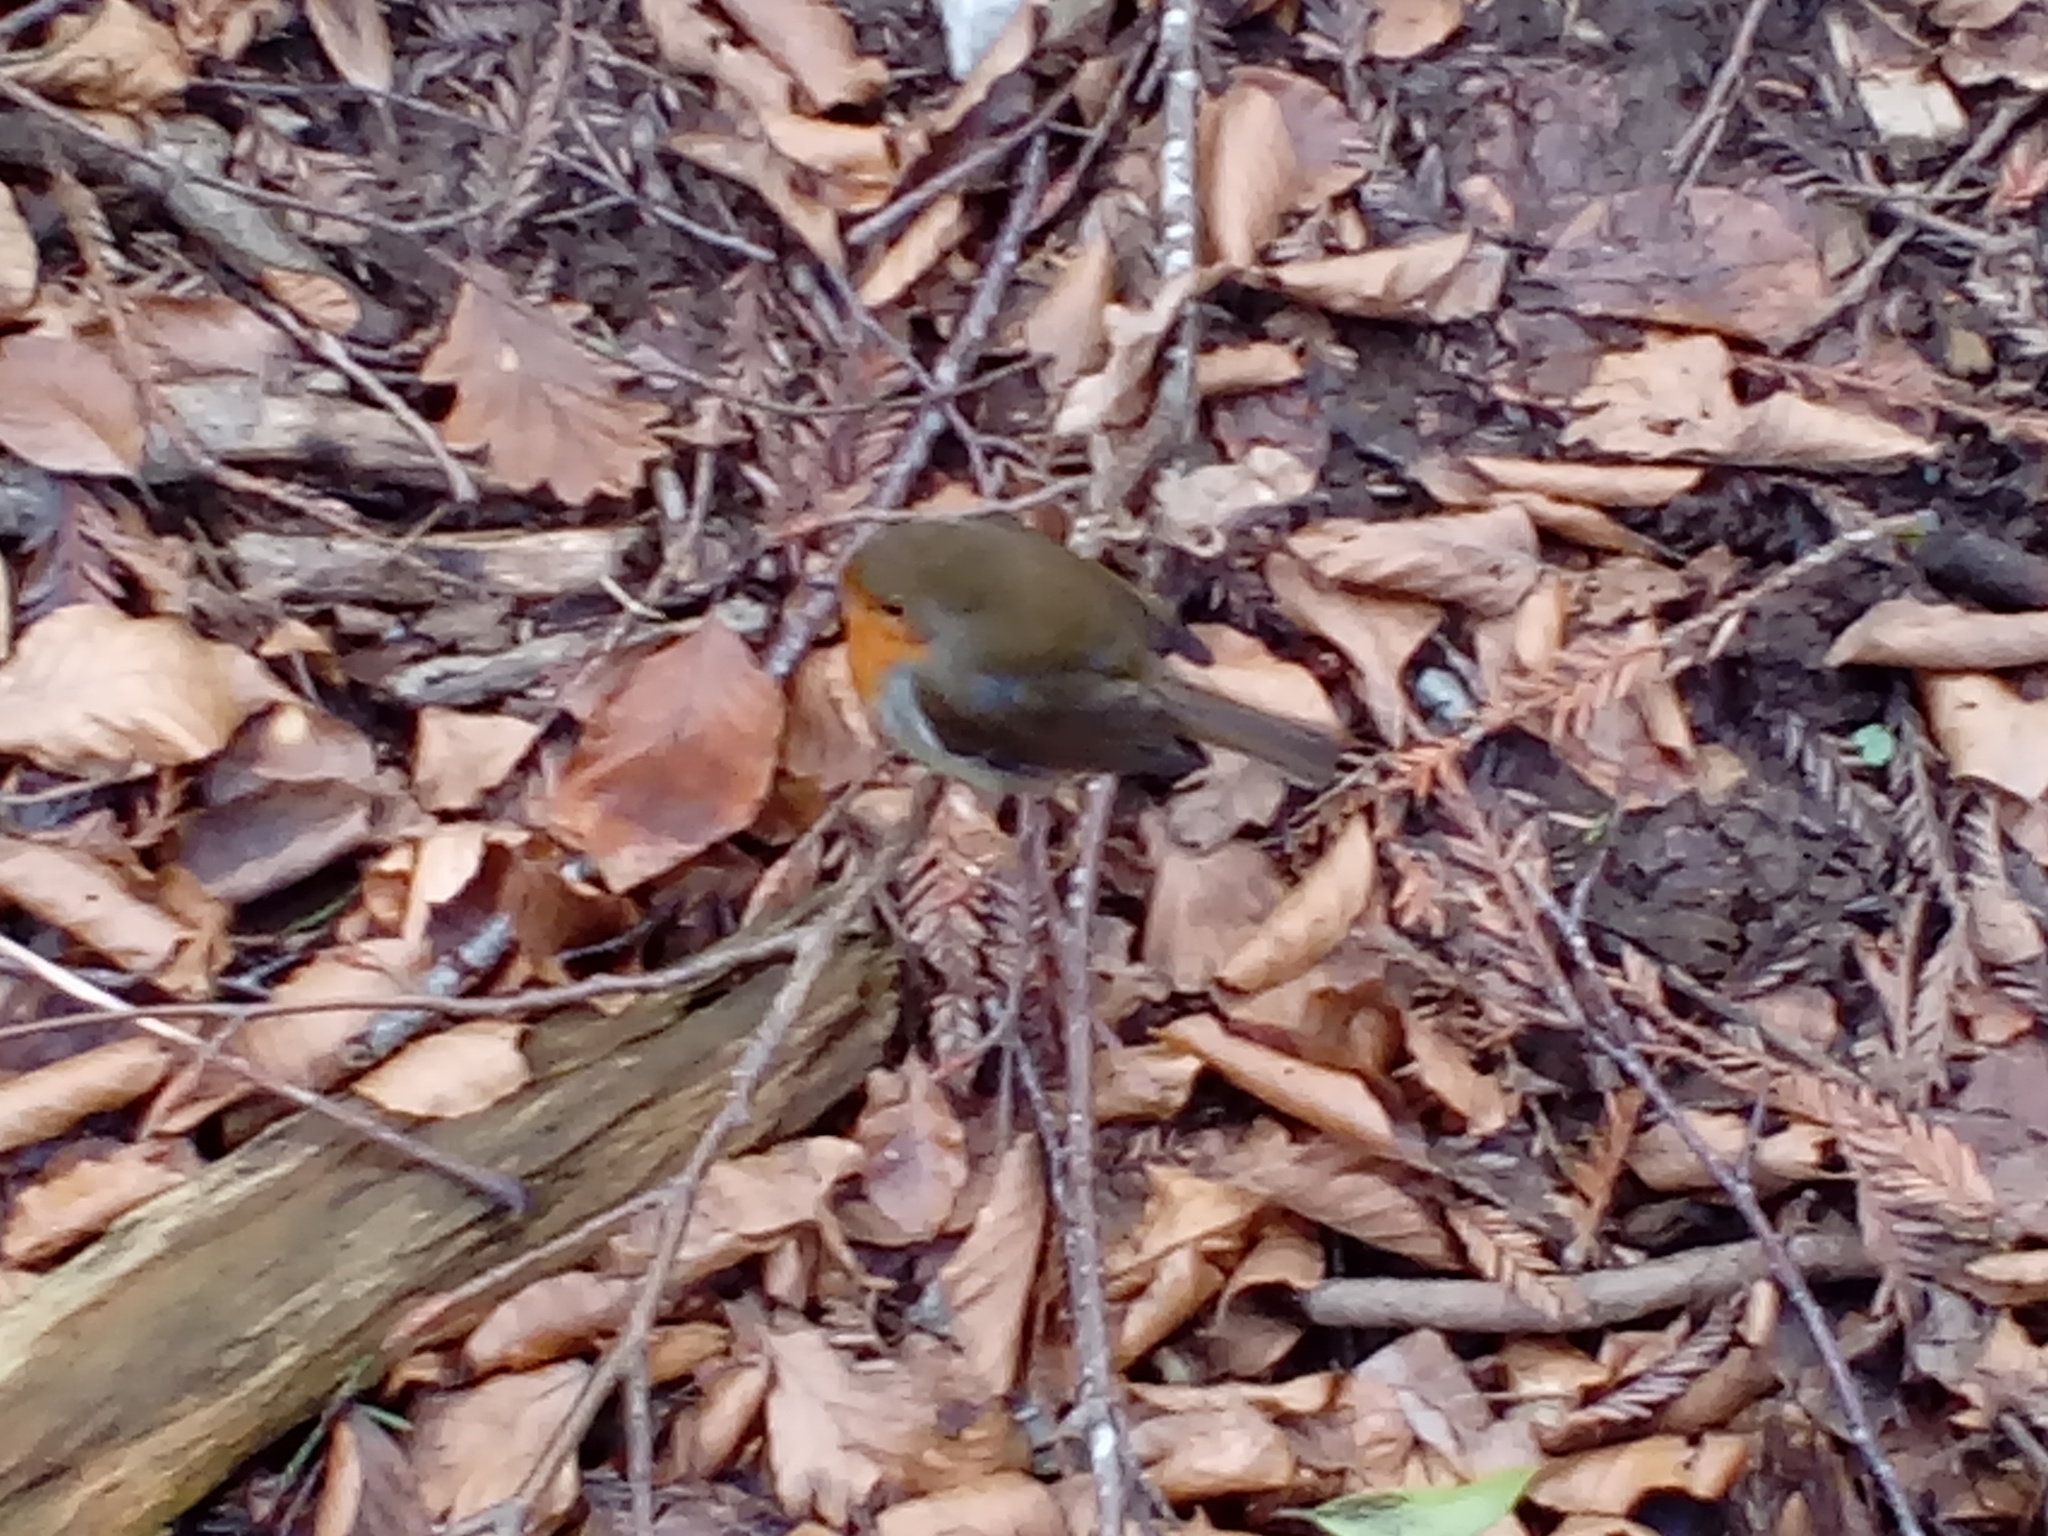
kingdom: Animalia
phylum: Chordata
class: Aves
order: Passeriformes
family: Muscicapidae
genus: Erithacus
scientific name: Erithacus rubecula
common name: European robin
